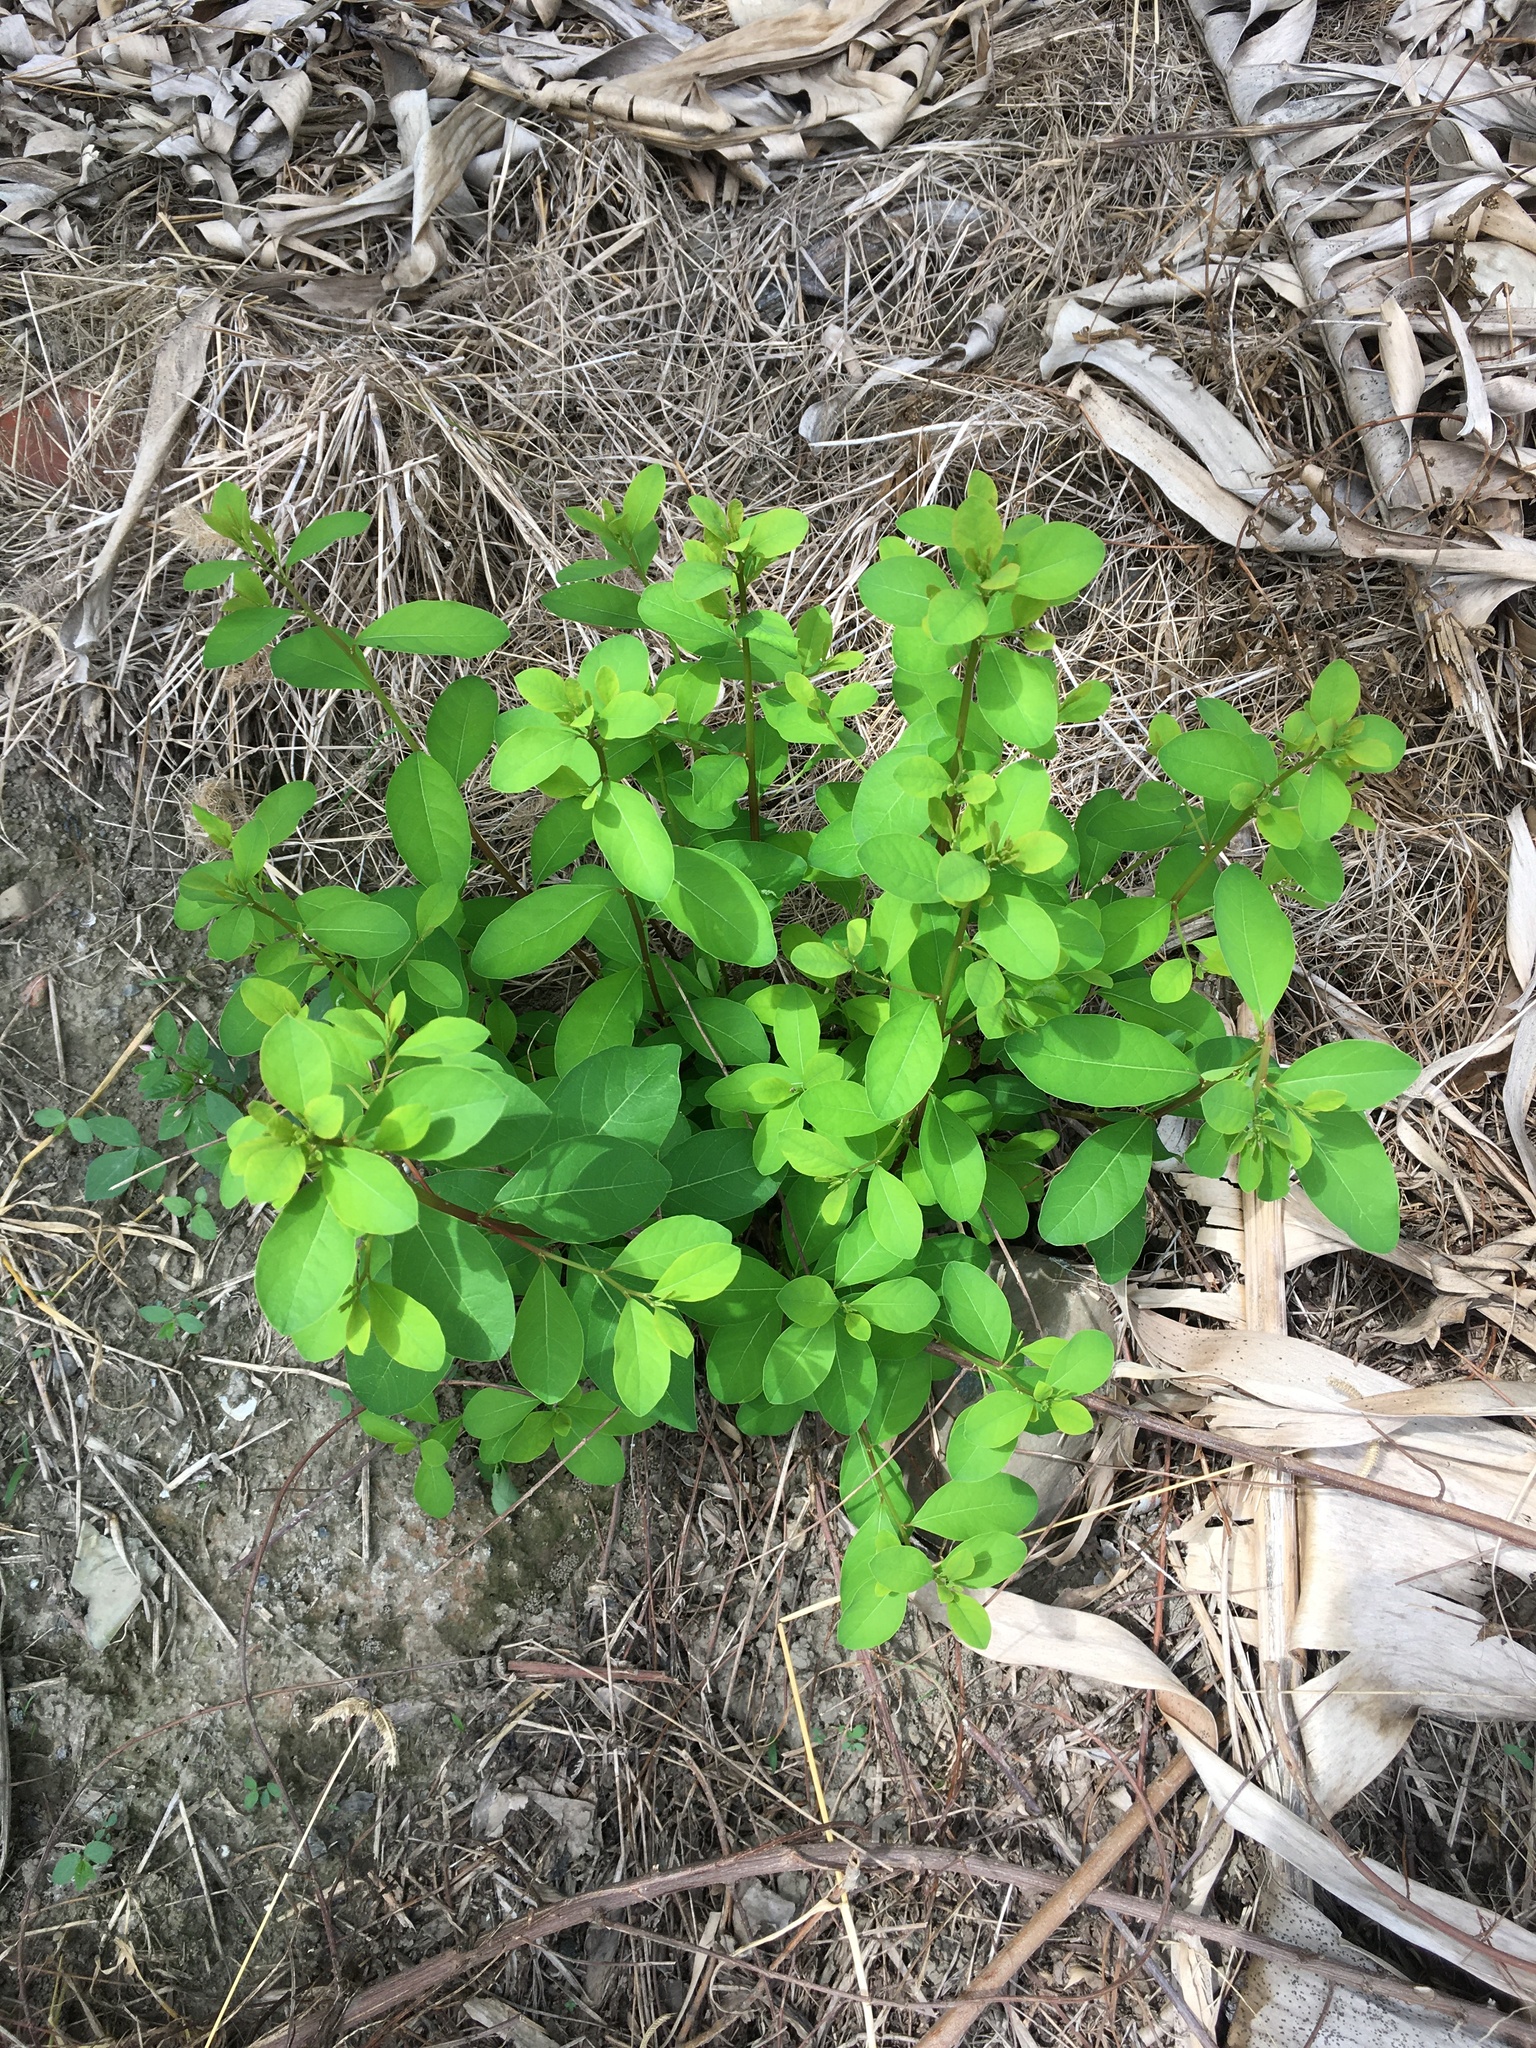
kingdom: Plantae
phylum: Tracheophyta
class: Magnoliopsida
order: Malpighiales
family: Phyllanthaceae
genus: Flueggea
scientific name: Flueggea virosa
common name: Common bushweed
